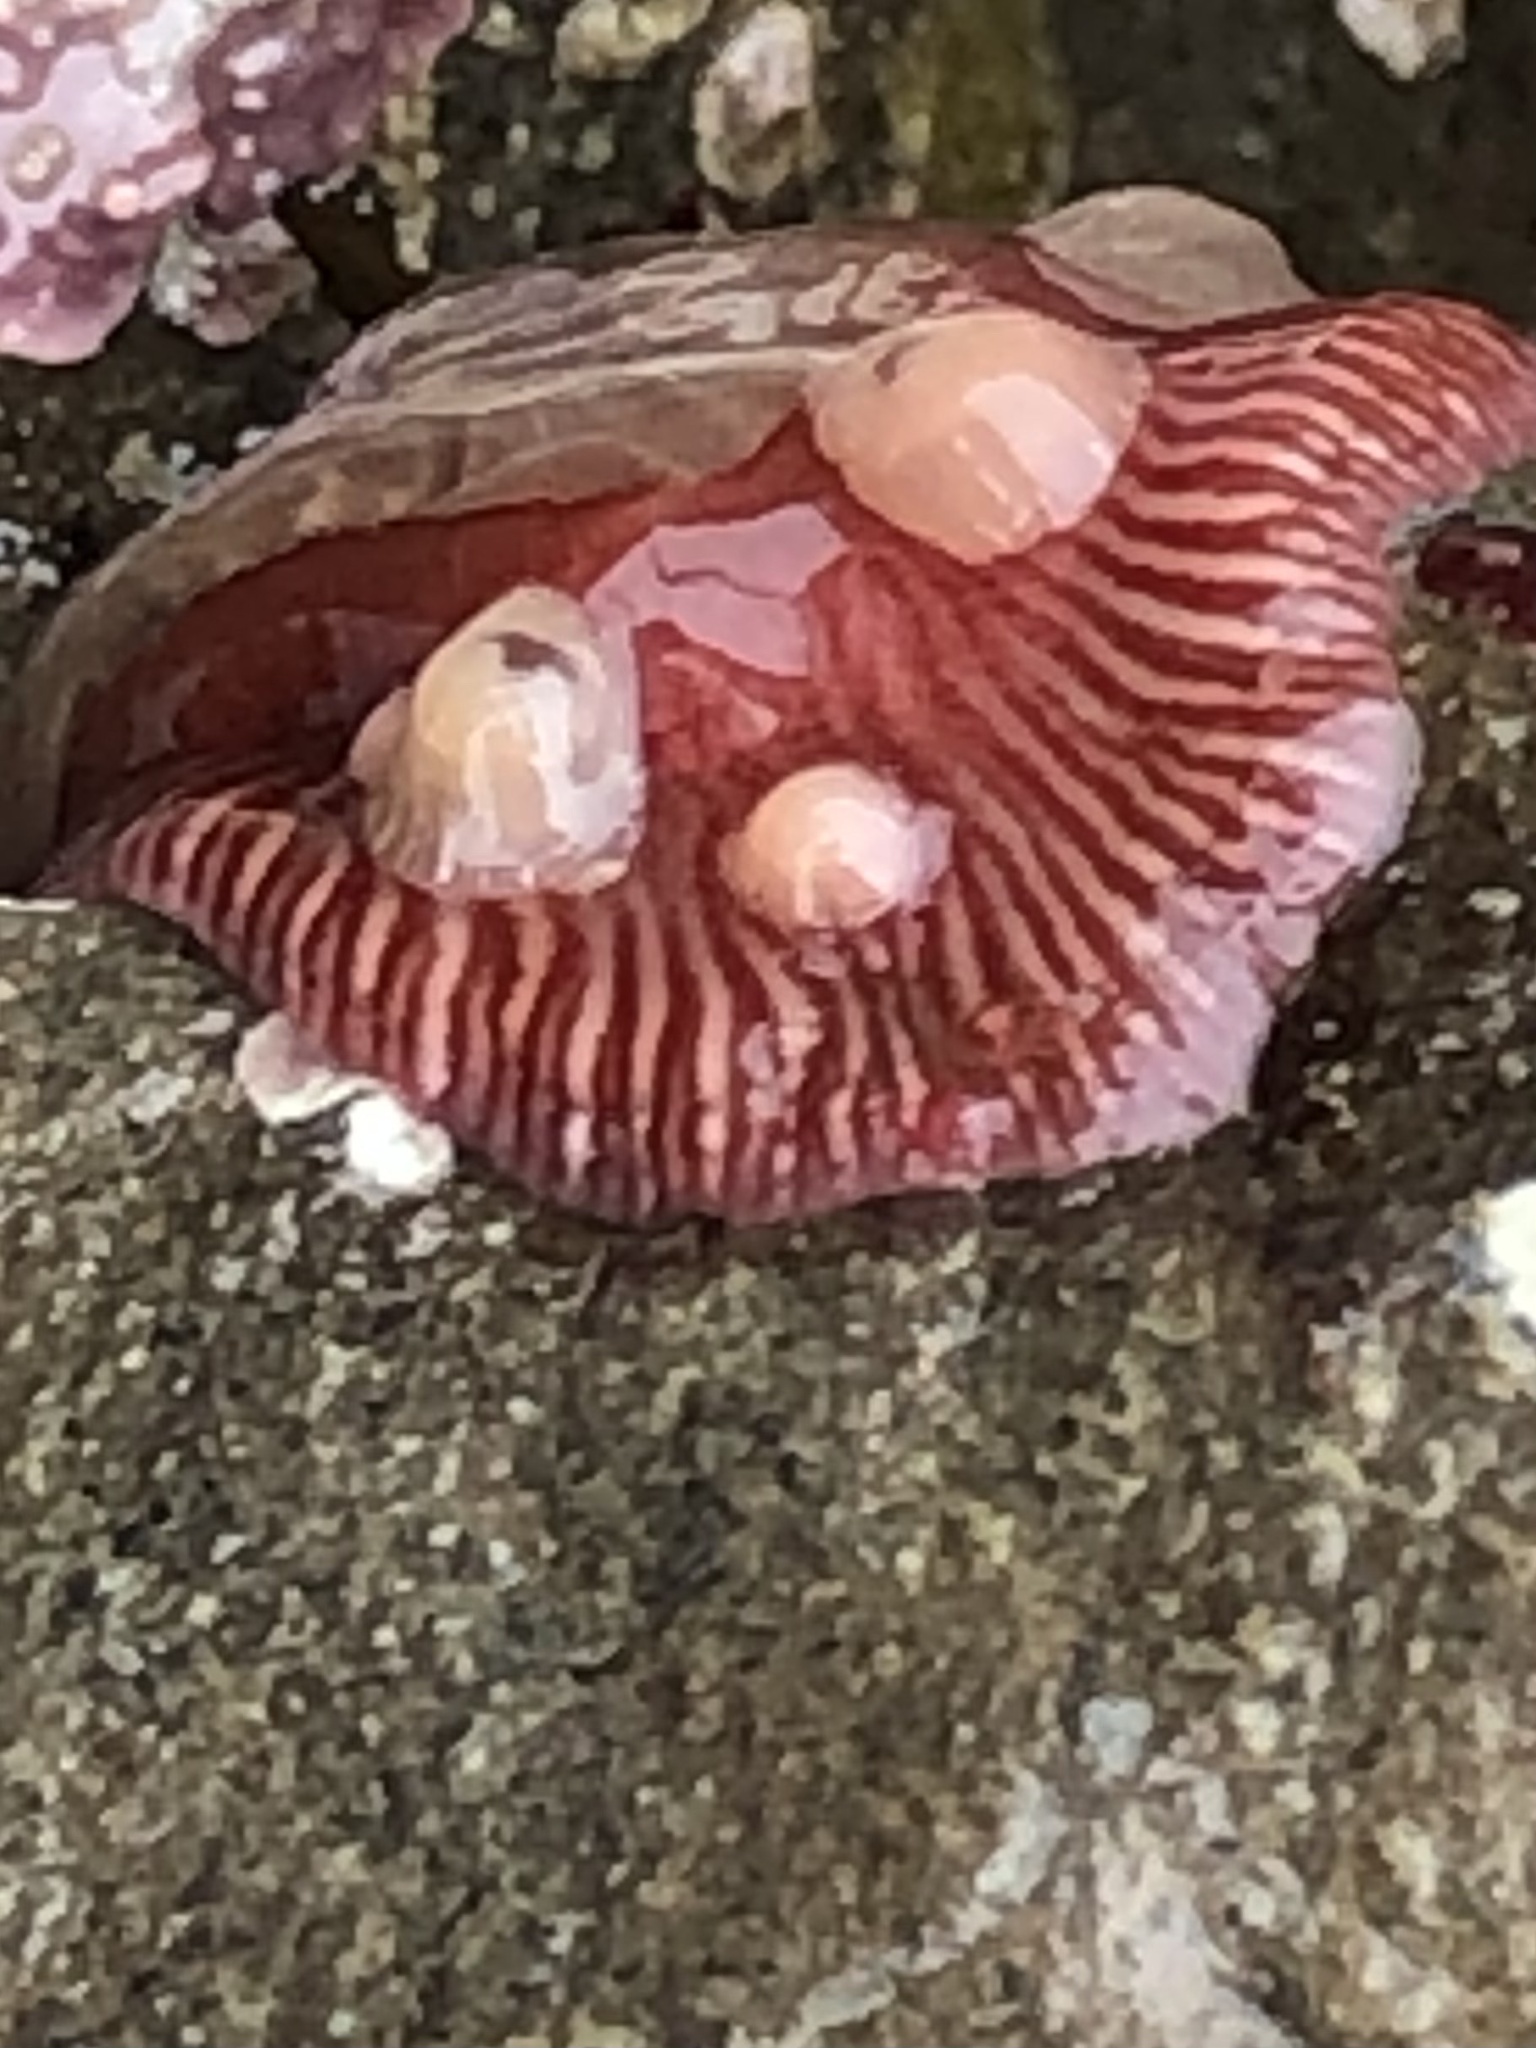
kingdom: Animalia
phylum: Cnidaria
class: Anthozoa
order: Actiniaria
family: Actiniidae
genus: Epiactis
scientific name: Epiactis prolifera
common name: Brooding anemone
